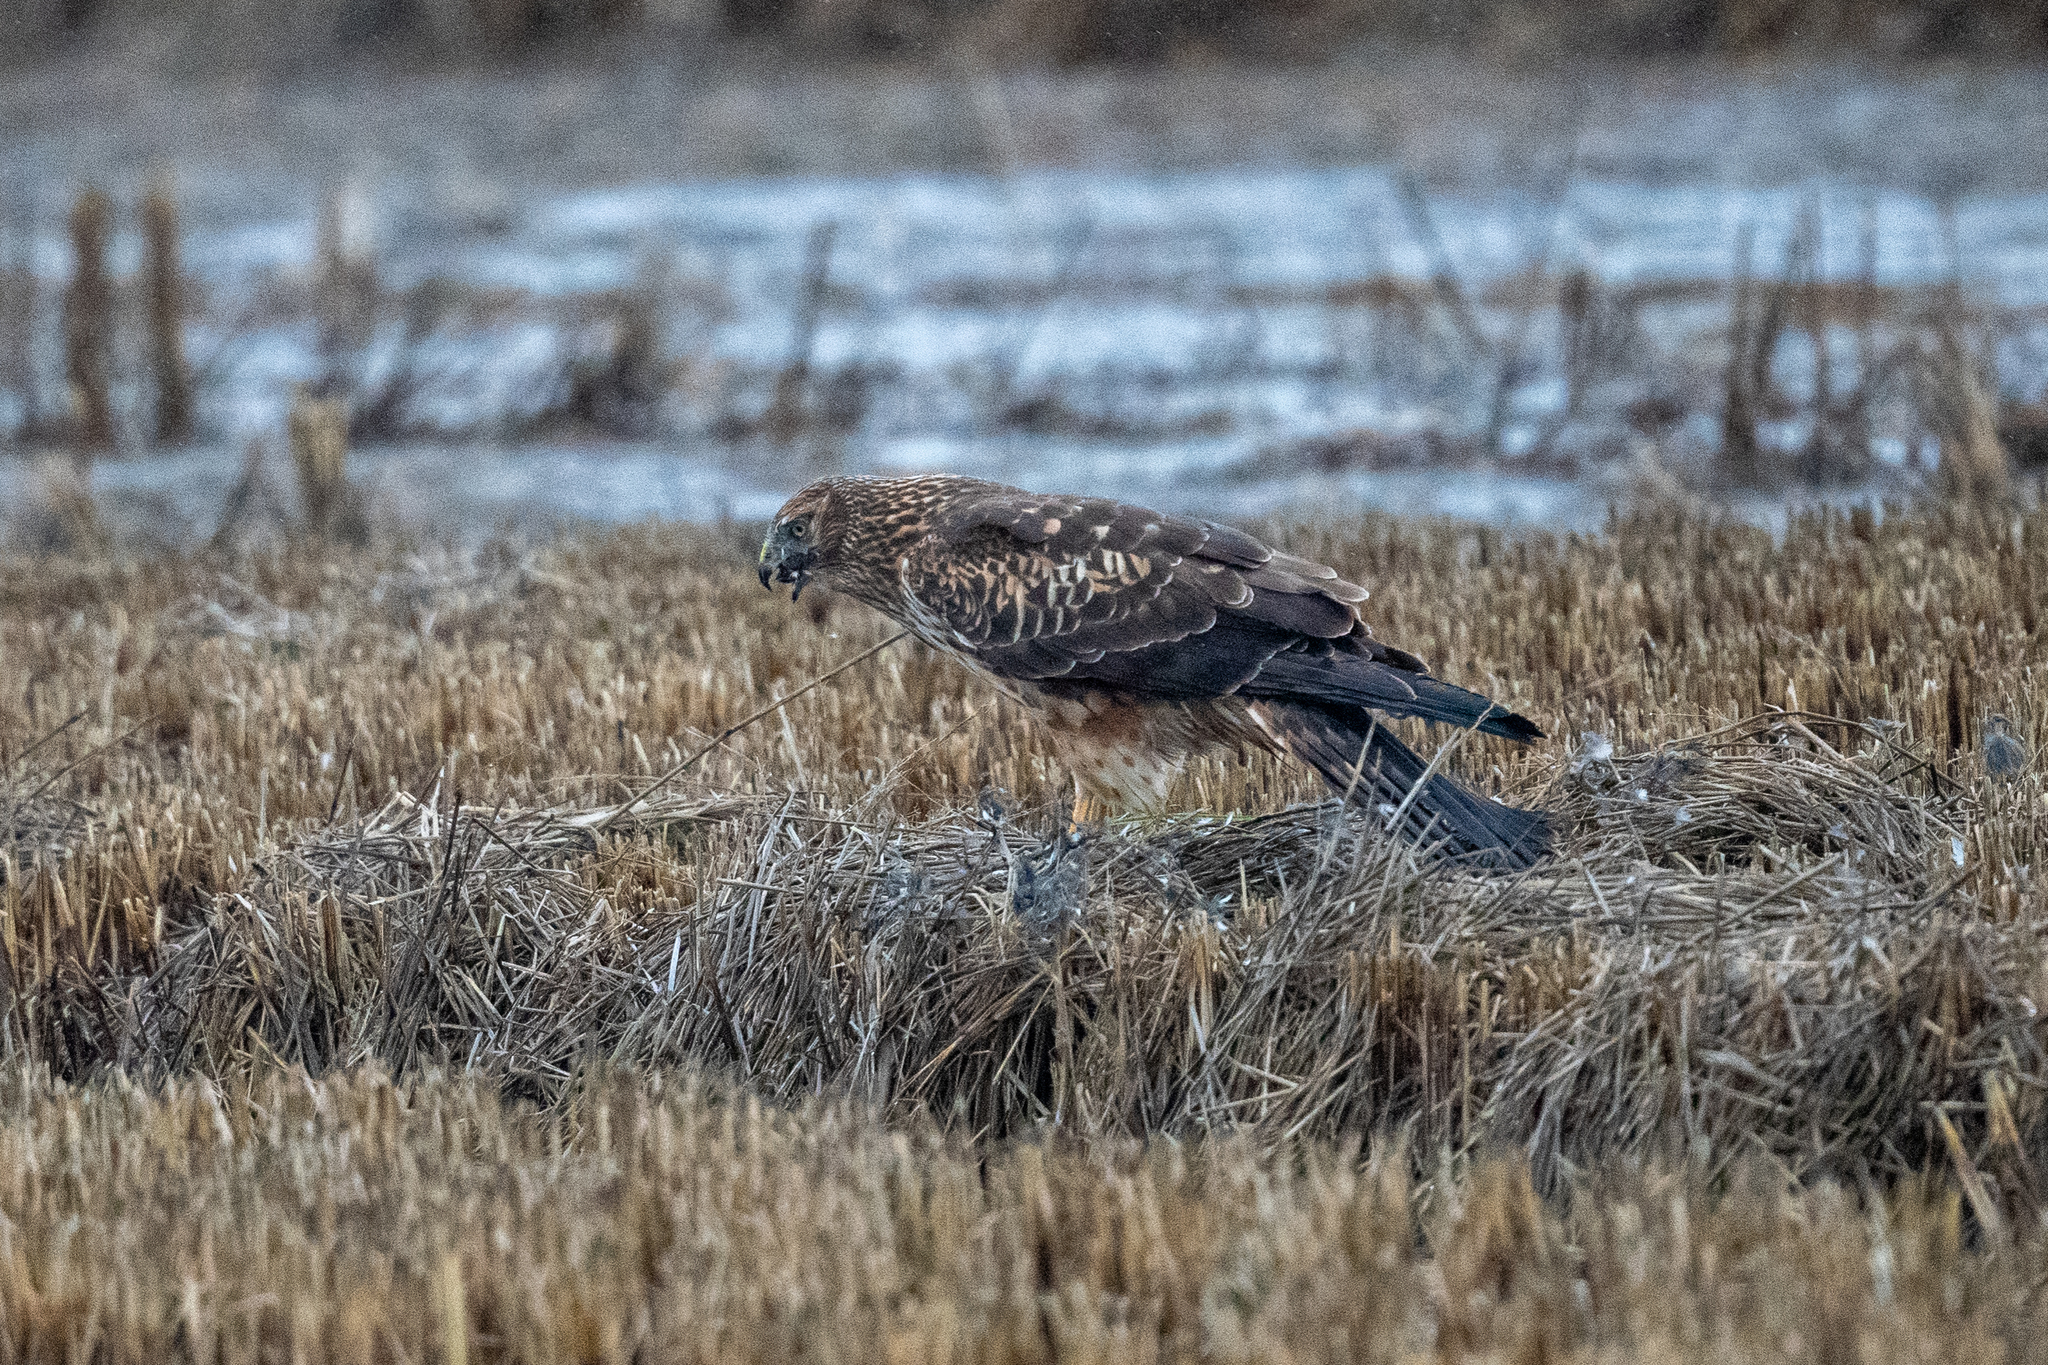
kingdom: Animalia
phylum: Chordata
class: Aves
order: Accipitriformes
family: Accipitridae
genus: Circus
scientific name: Circus cyaneus
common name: Hen harrier
